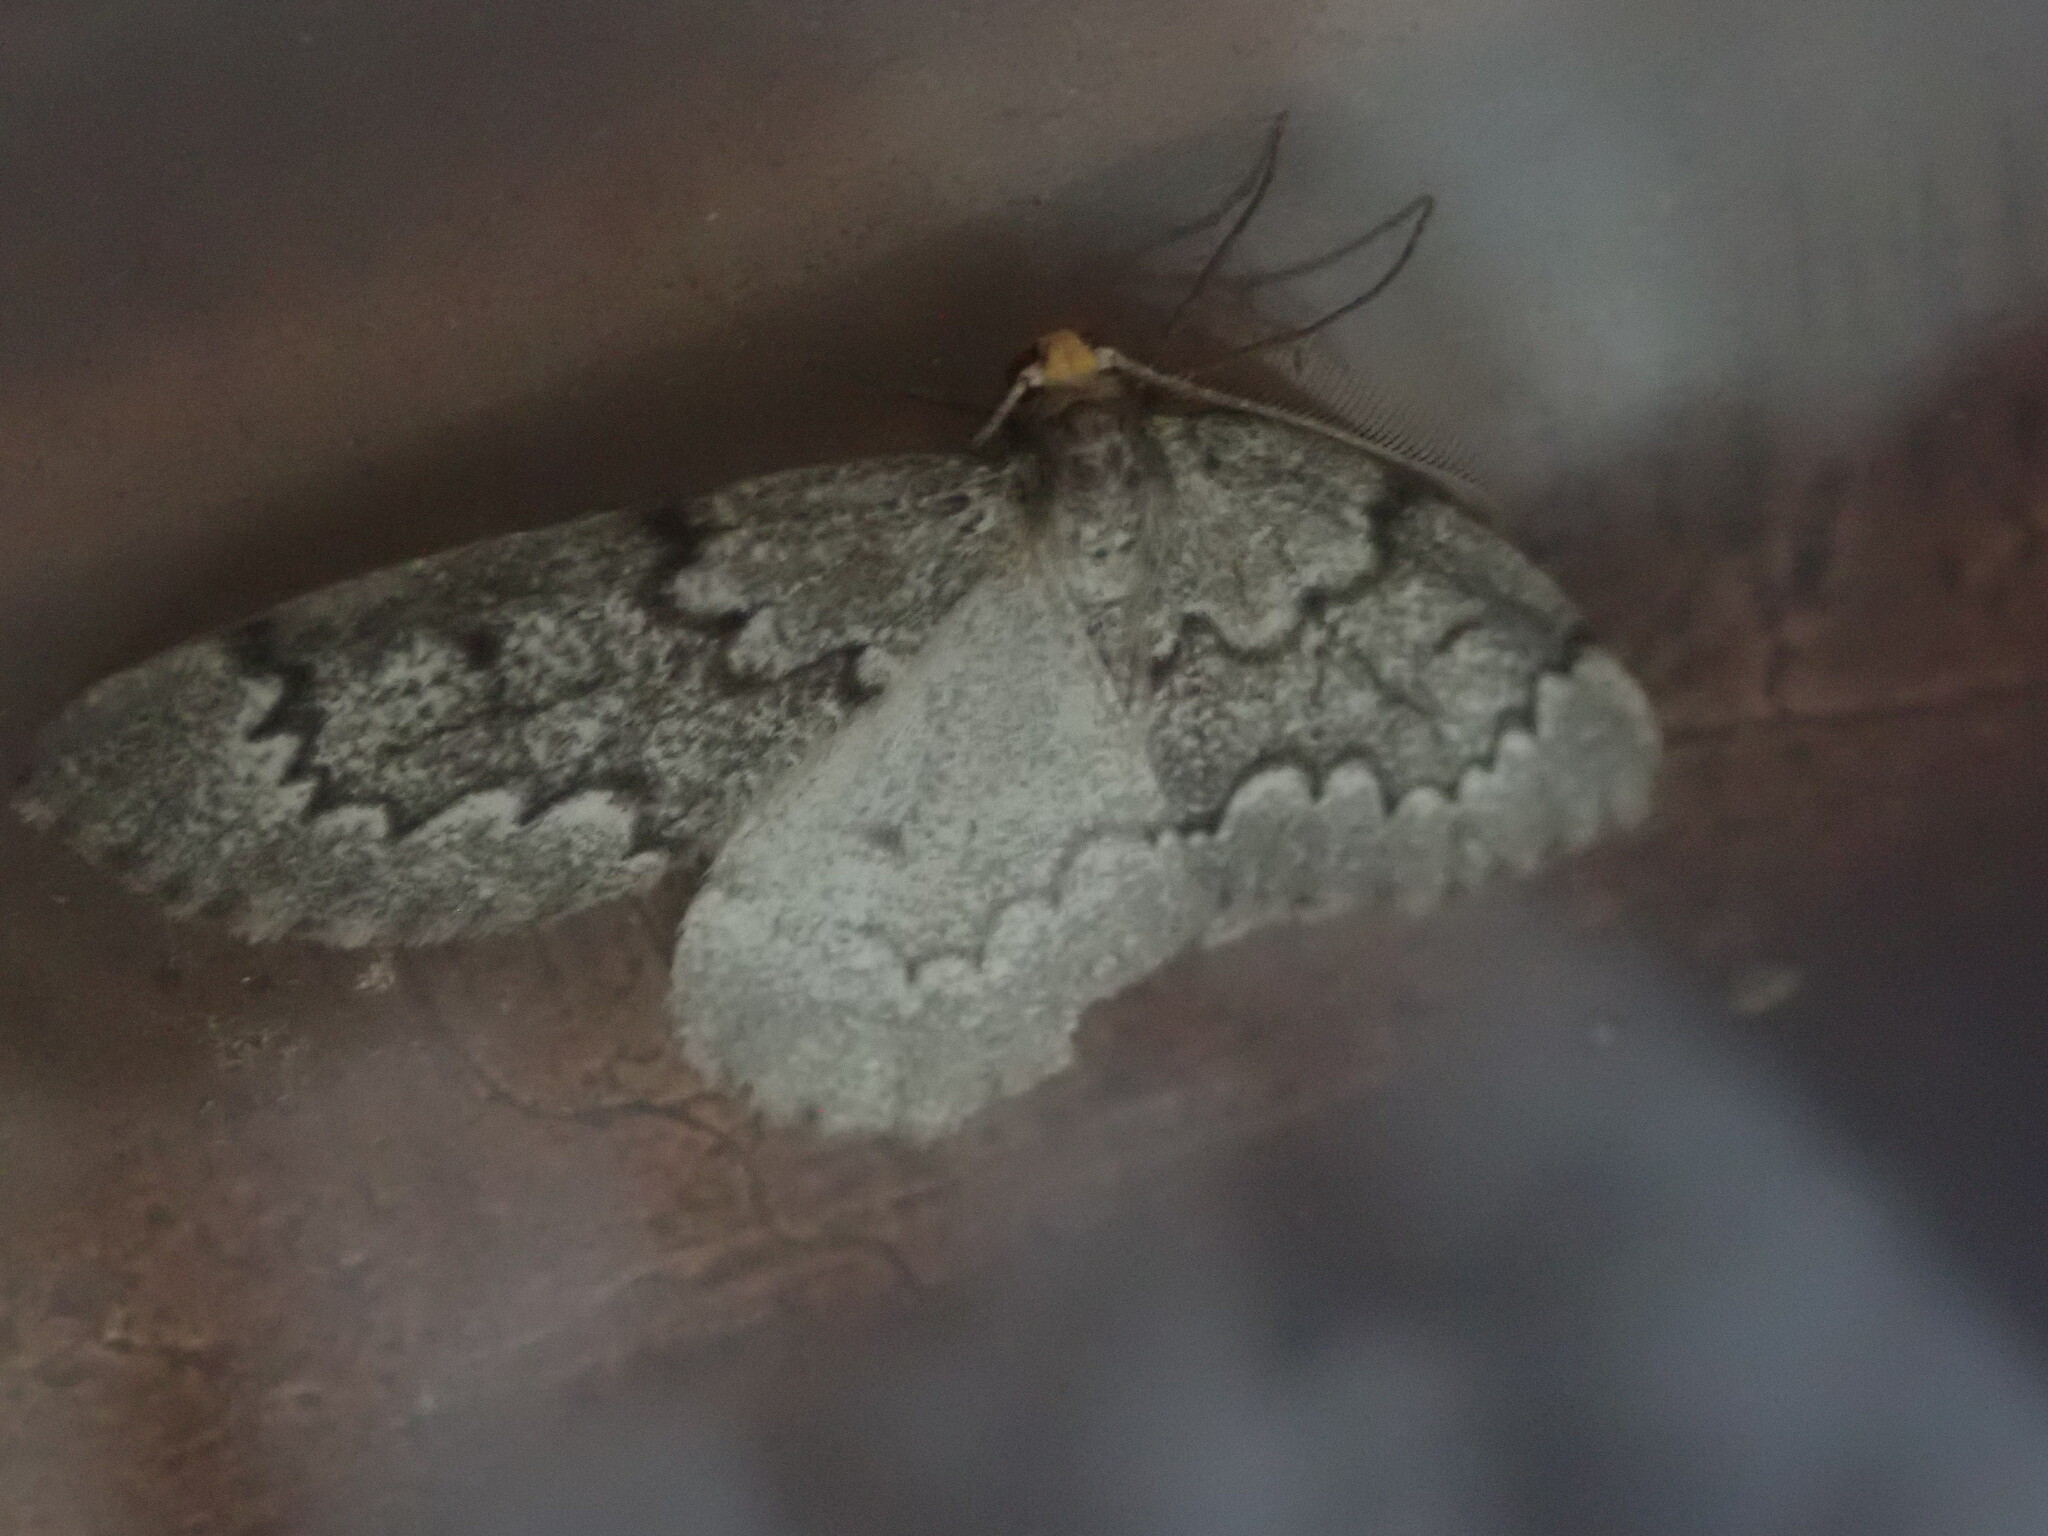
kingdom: Animalia
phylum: Arthropoda
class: Insecta
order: Lepidoptera
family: Geometridae
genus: Nepytia
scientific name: Nepytia canosaria
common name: False hemlock looper
